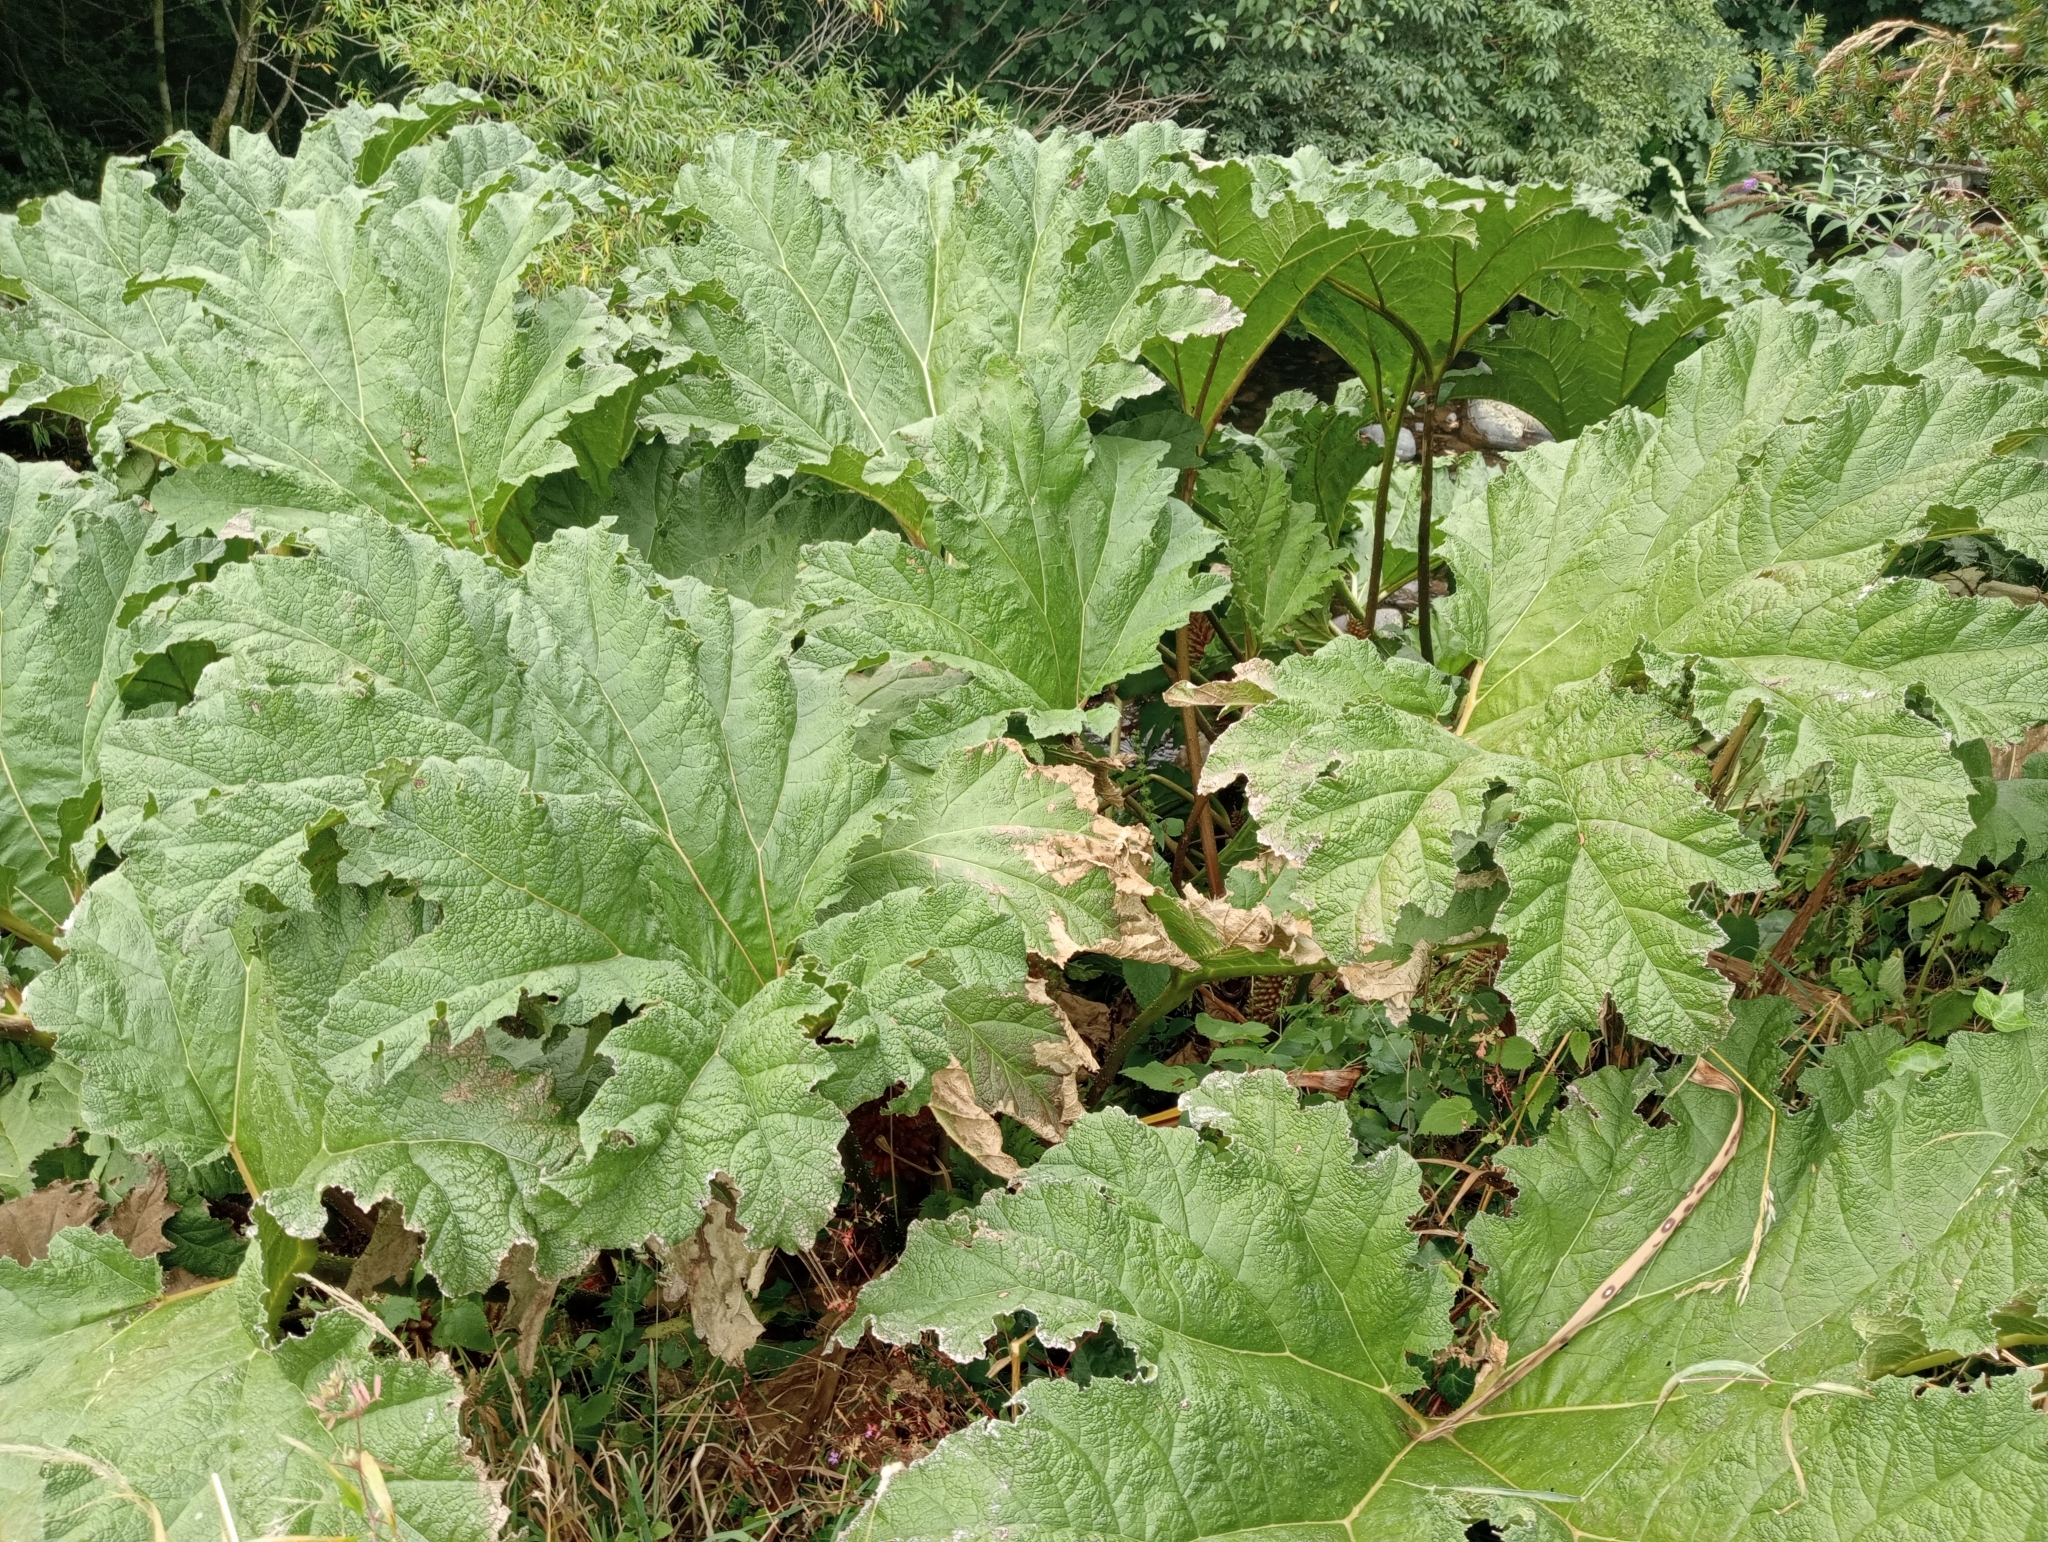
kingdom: Plantae
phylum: Tracheophyta
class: Magnoliopsida
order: Gunnerales
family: Gunneraceae
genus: Gunnera
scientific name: Gunnera tinctoria
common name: Giant-rhubarb
